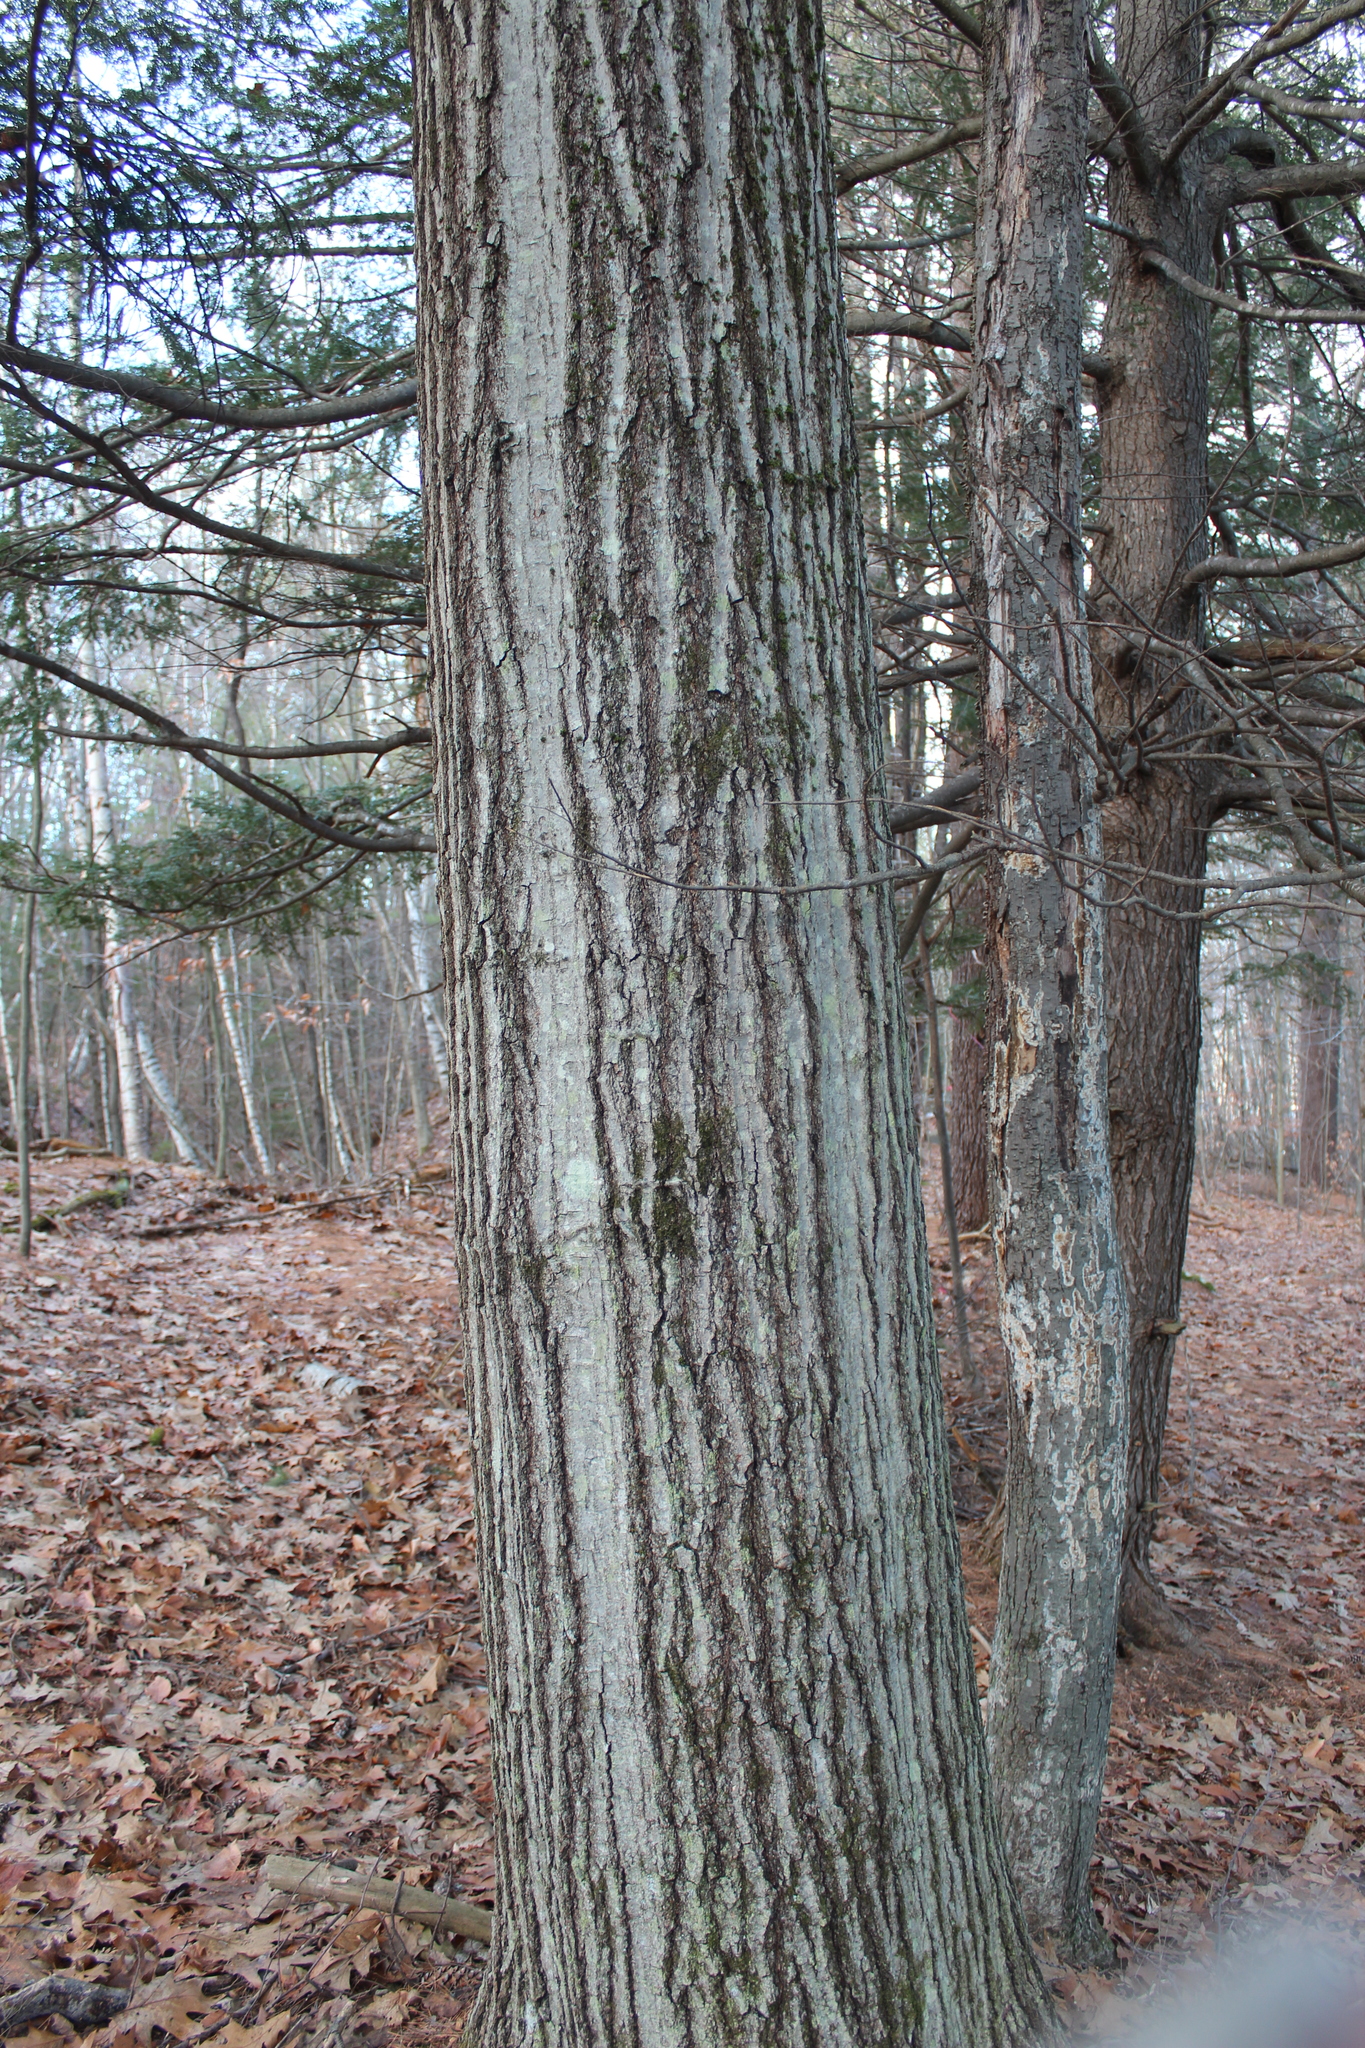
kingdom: Plantae
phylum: Tracheophyta
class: Magnoliopsida
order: Fagales
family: Fagaceae
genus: Quercus
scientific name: Quercus rubra
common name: Red oak
